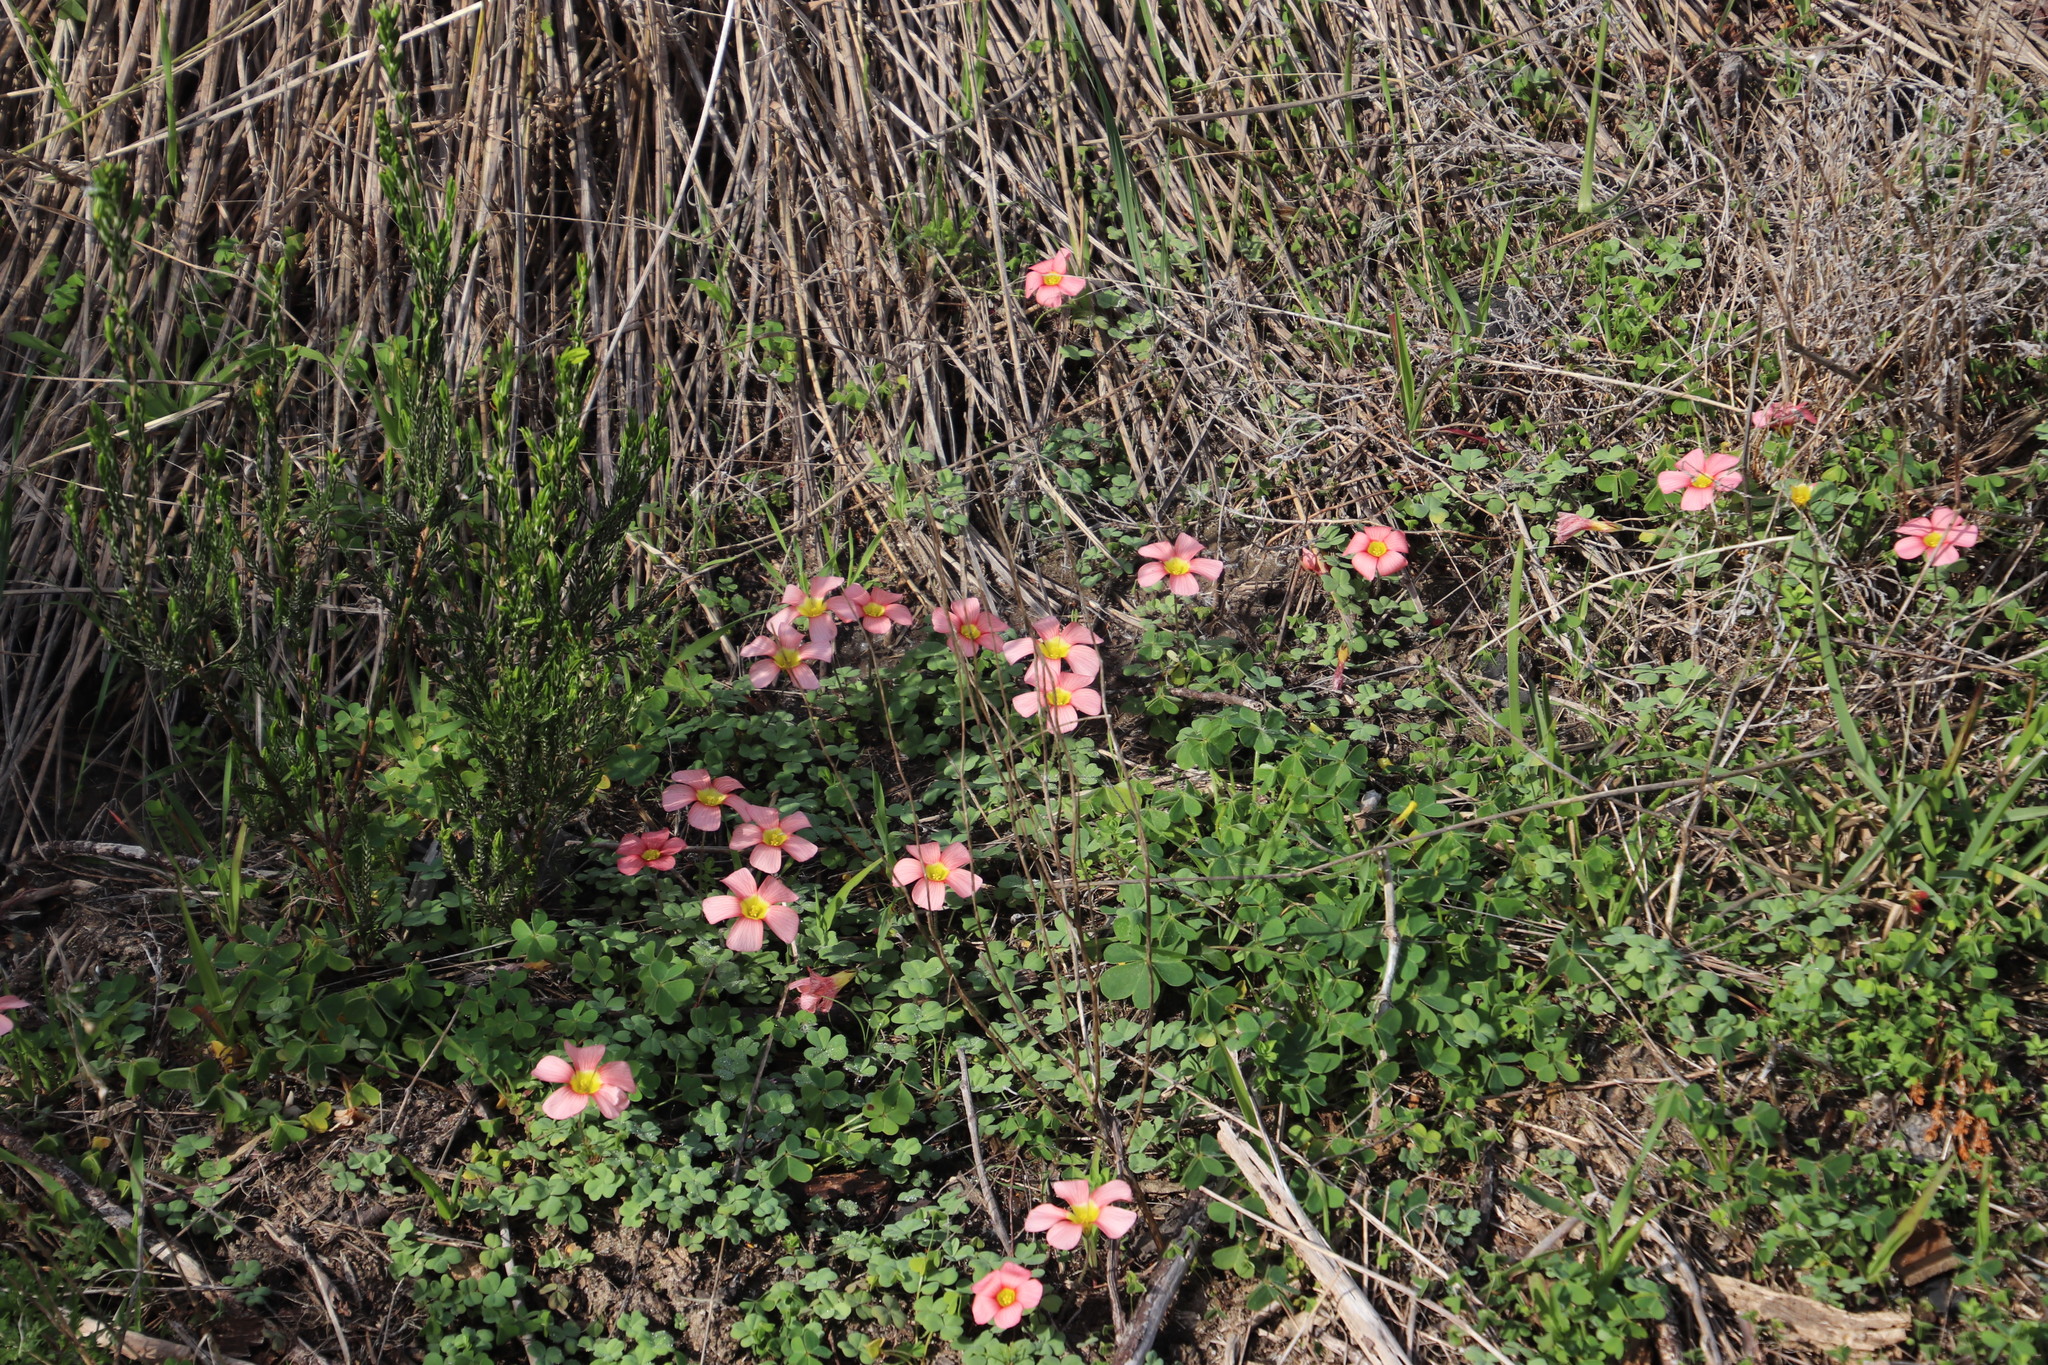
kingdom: Plantae
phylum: Tracheophyta
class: Magnoliopsida
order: Oxalidales
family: Oxalidaceae
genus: Oxalis
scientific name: Oxalis obtusa
